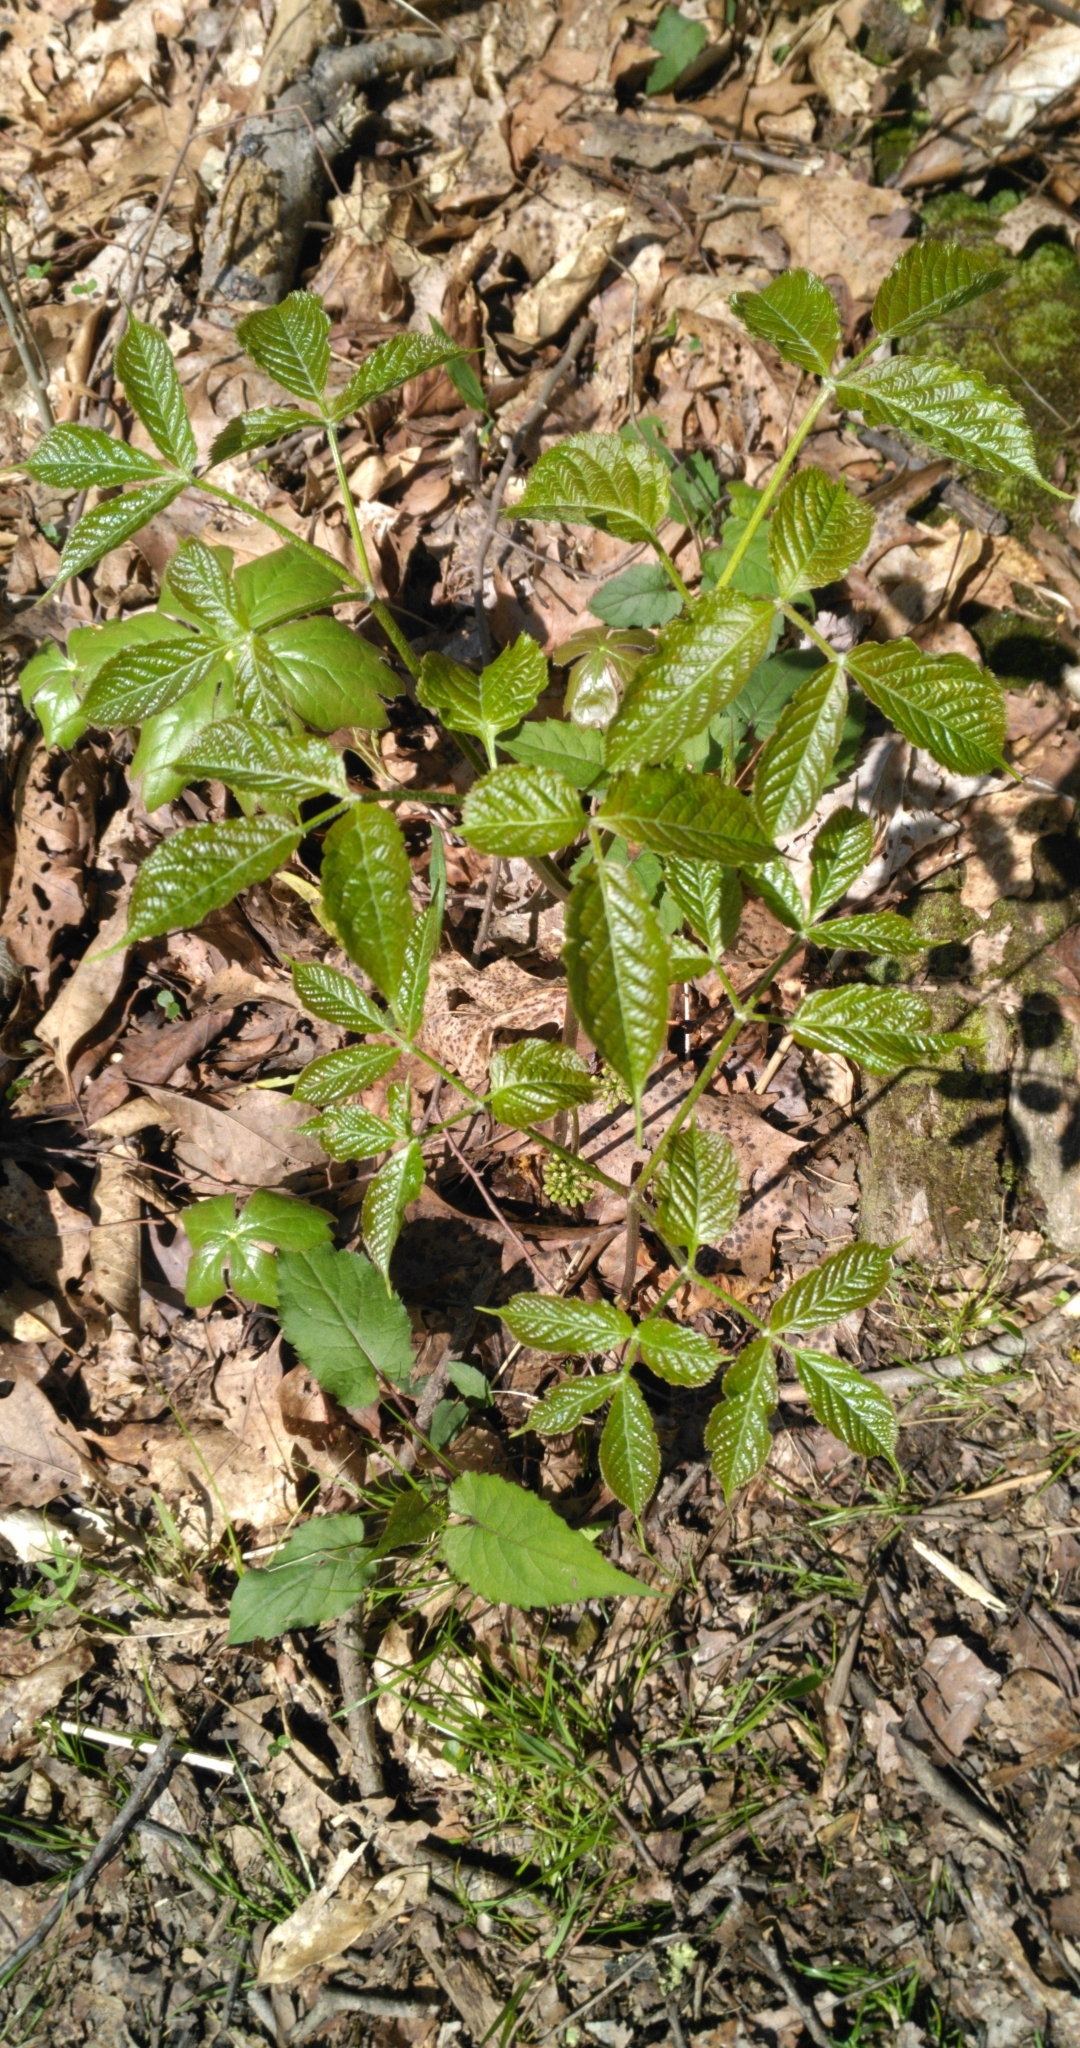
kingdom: Plantae
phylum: Tracheophyta
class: Magnoliopsida
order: Apiales
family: Araliaceae
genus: Aralia
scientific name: Aralia nudicaulis
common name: Wild sarsaparilla
